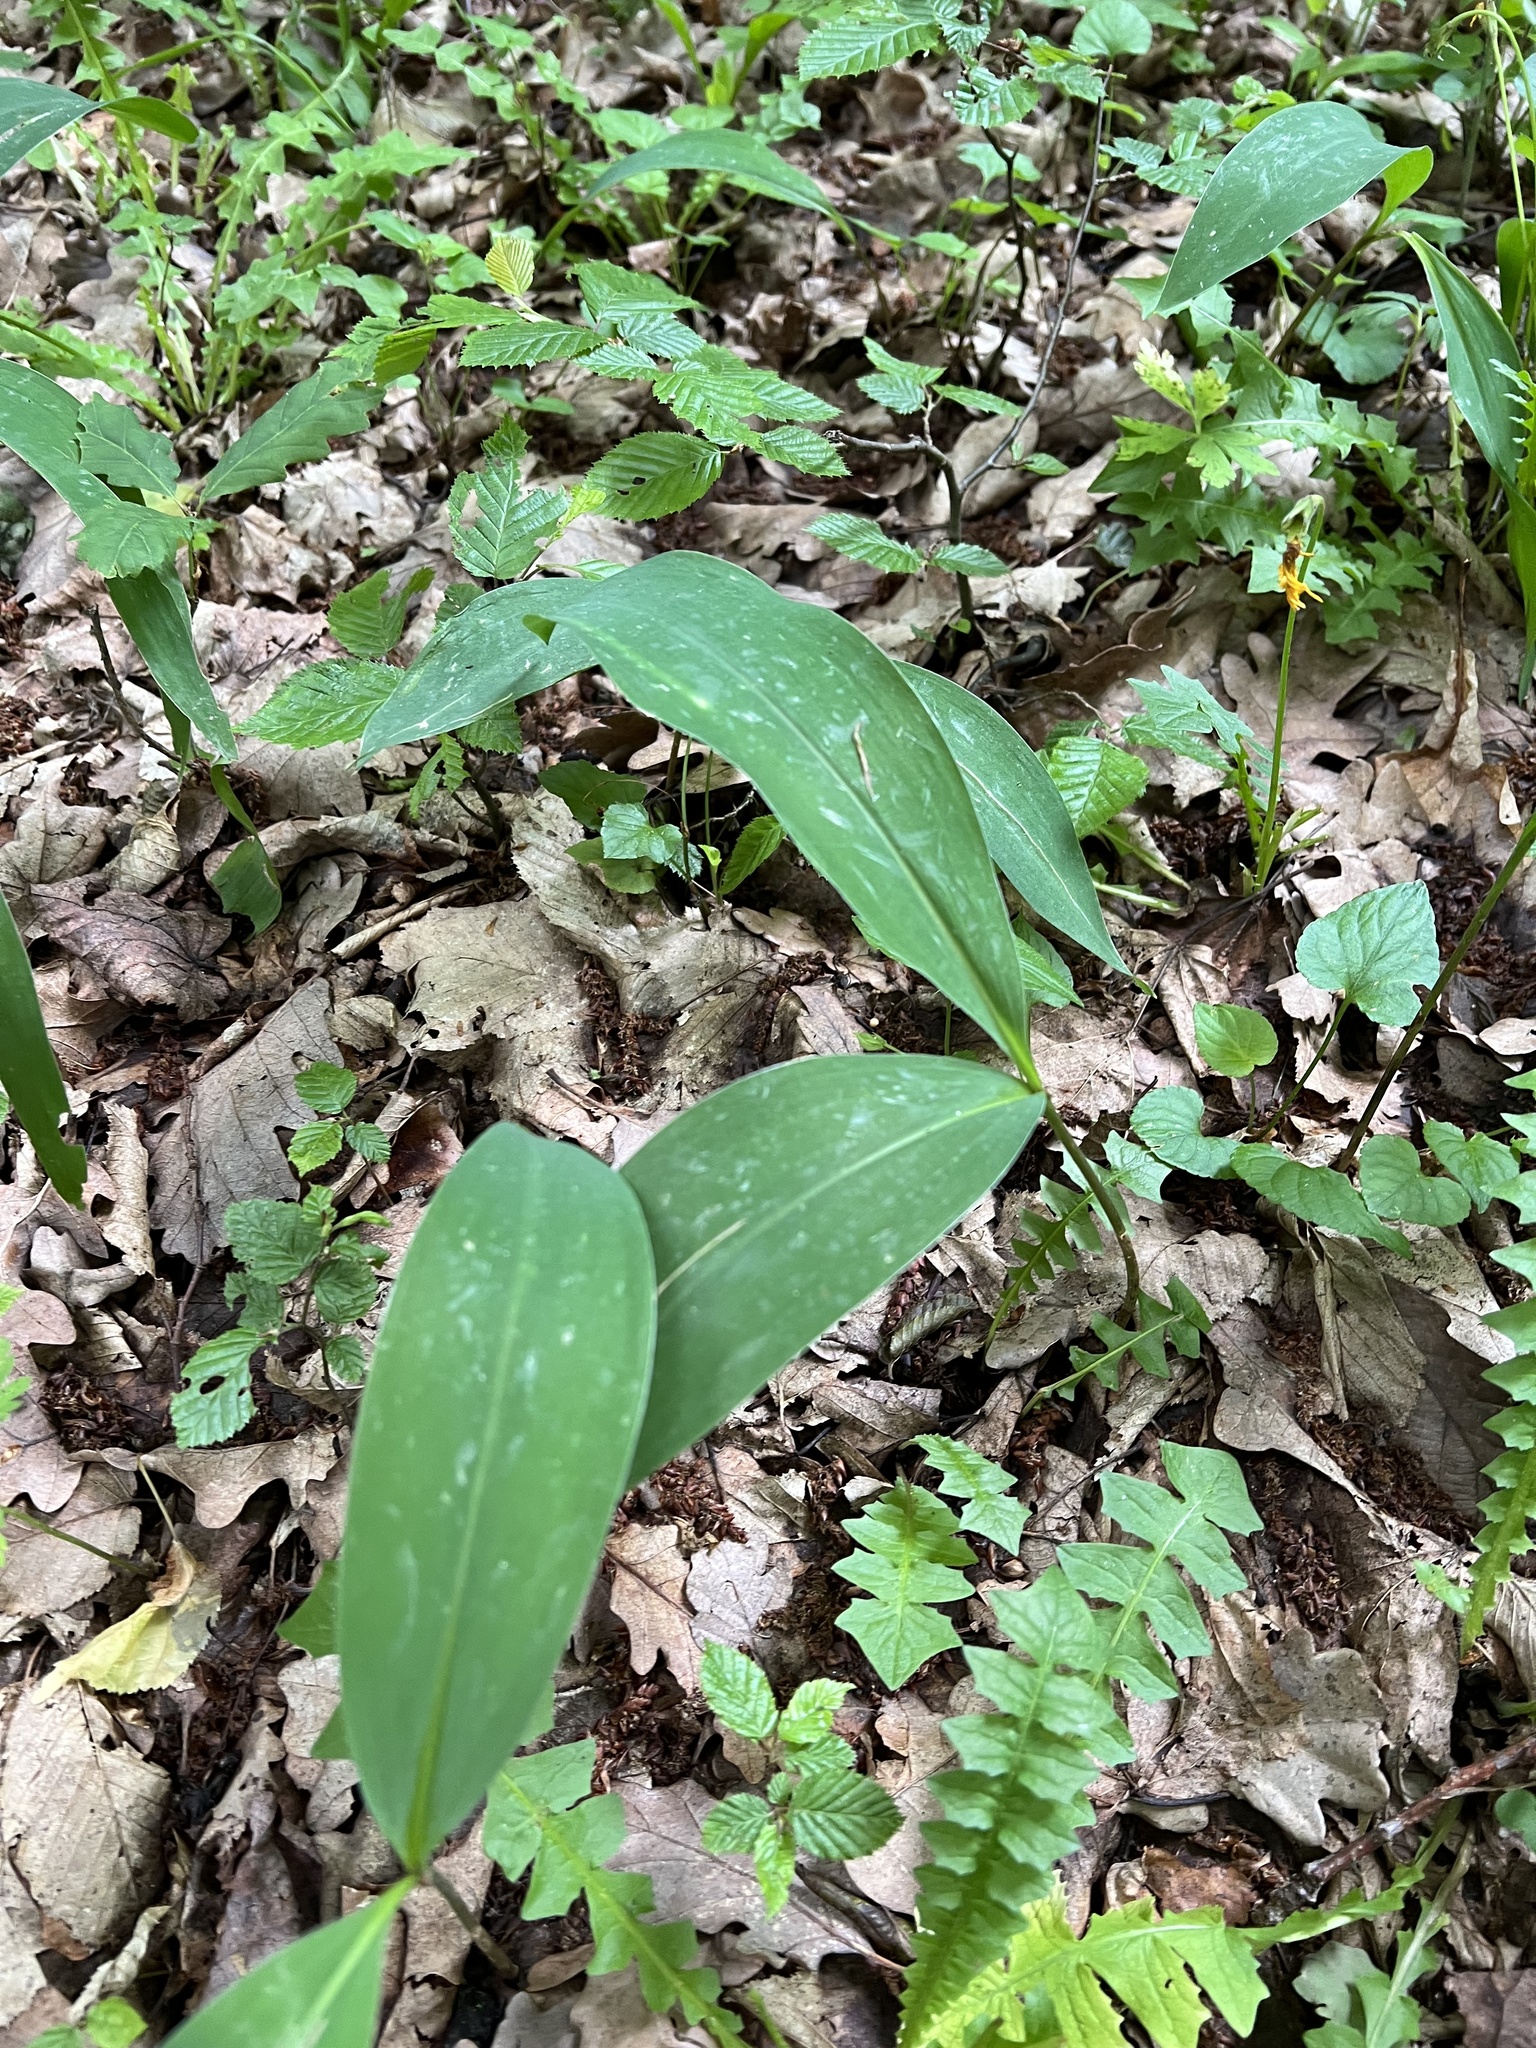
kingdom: Plantae
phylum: Tracheophyta
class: Liliopsida
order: Asparagales
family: Asparagaceae
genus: Convallaria
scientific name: Convallaria majalis
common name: Lily-of-the-valley
